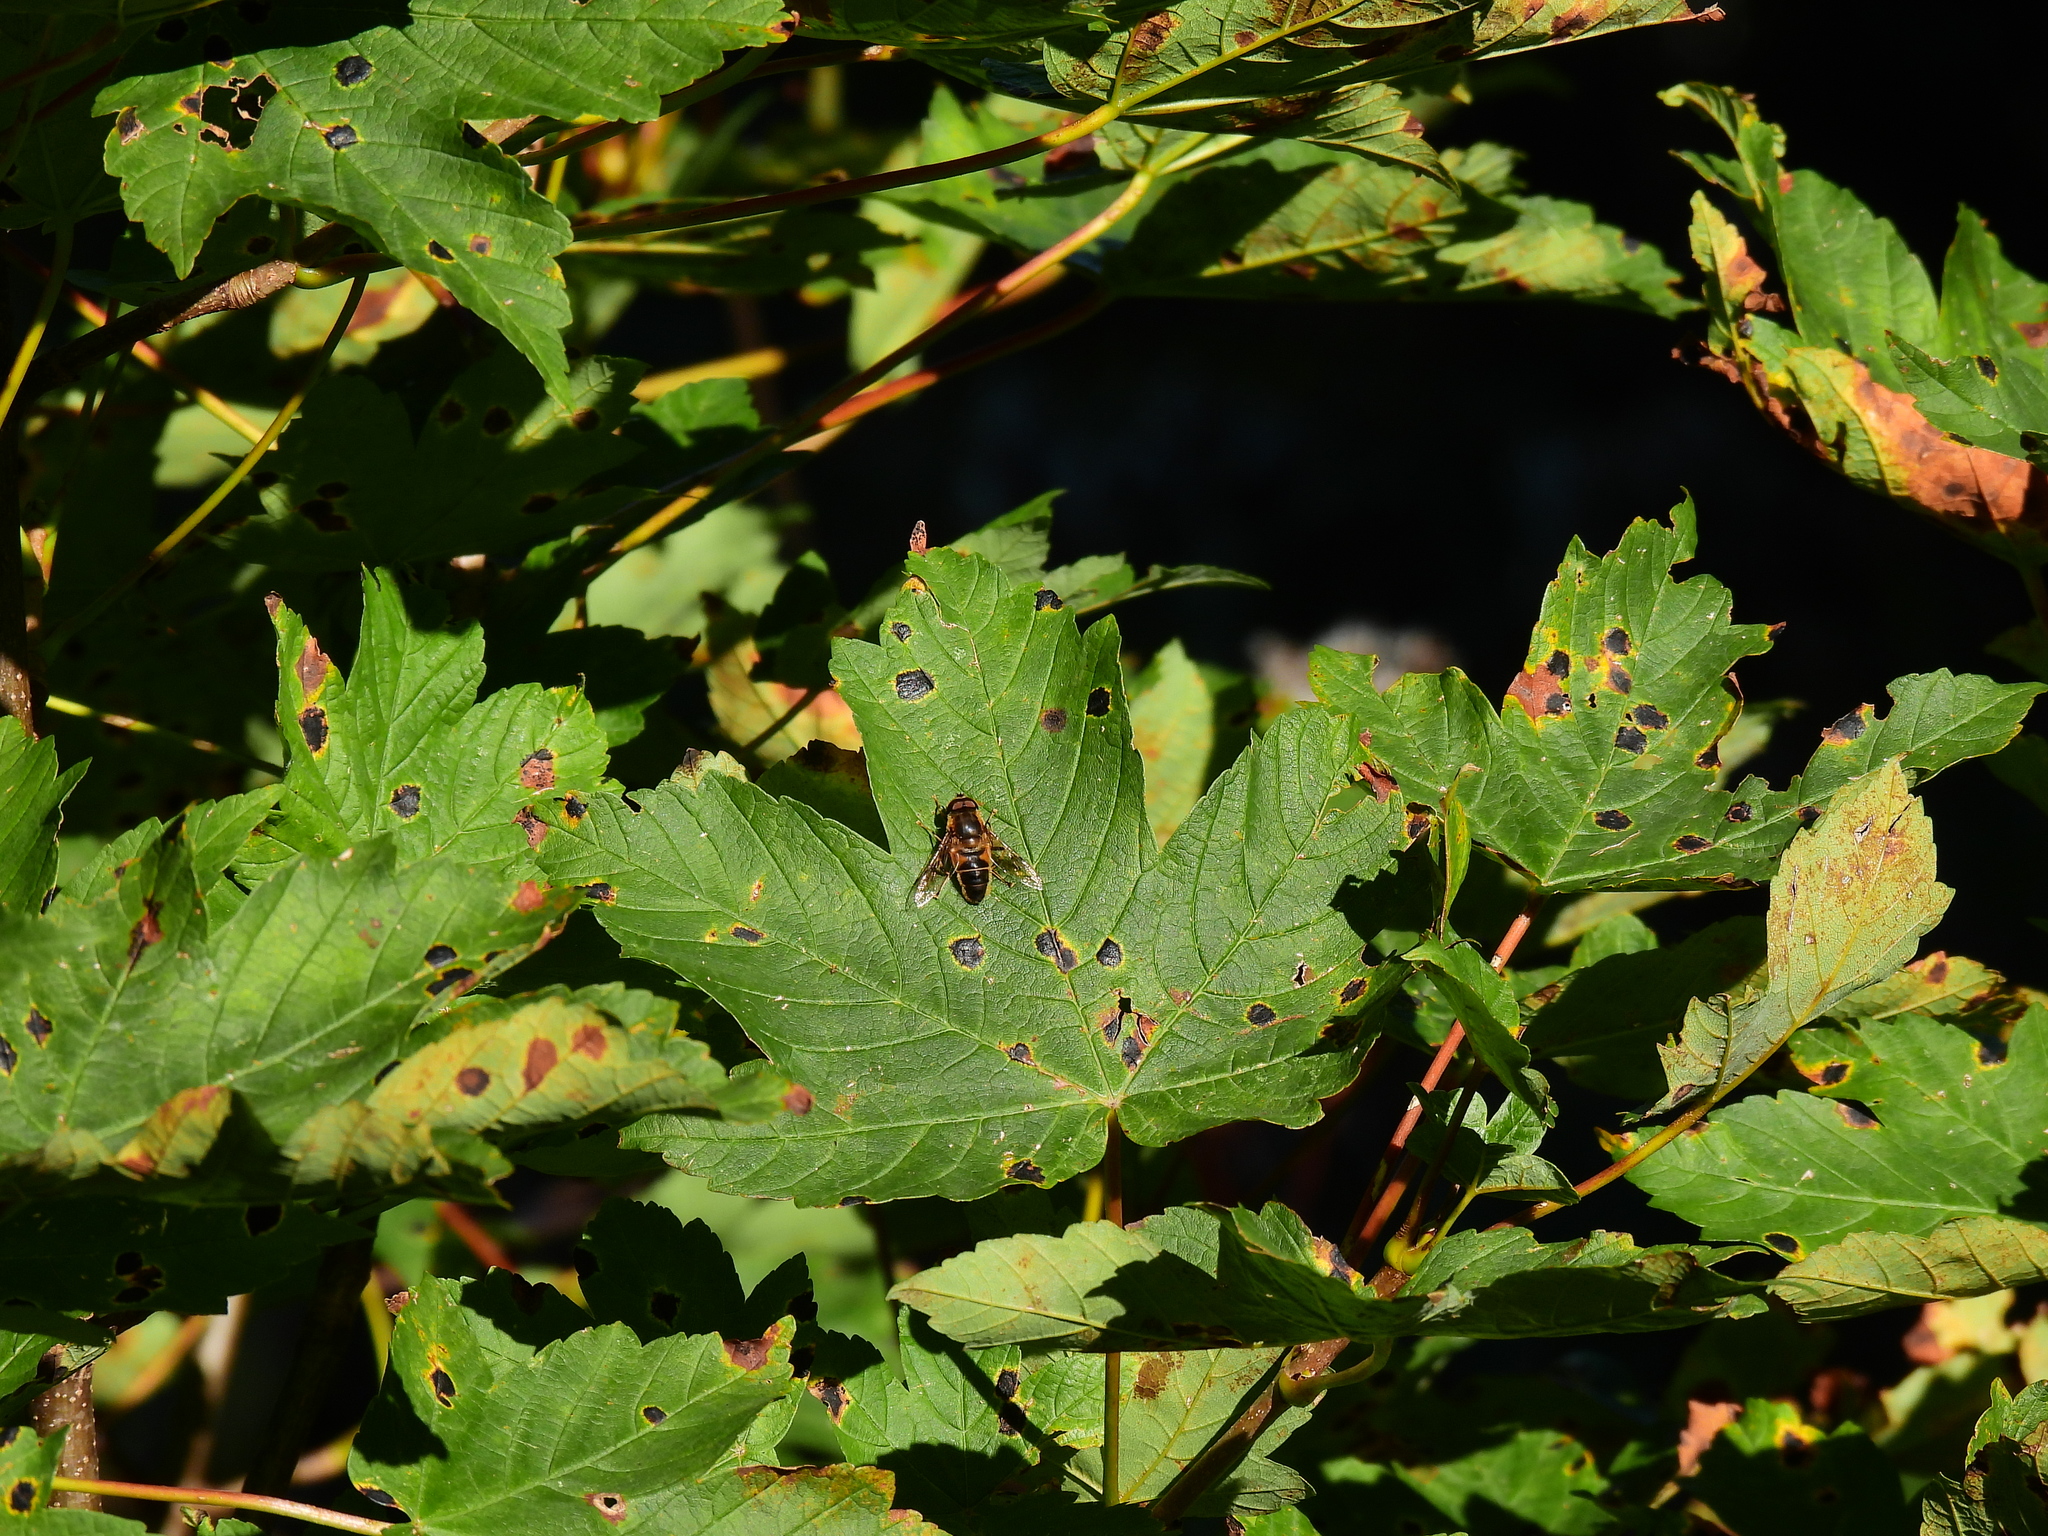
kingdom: Animalia
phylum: Arthropoda
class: Insecta
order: Diptera
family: Syrphidae
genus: Eristalis
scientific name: Eristalis pertinax
